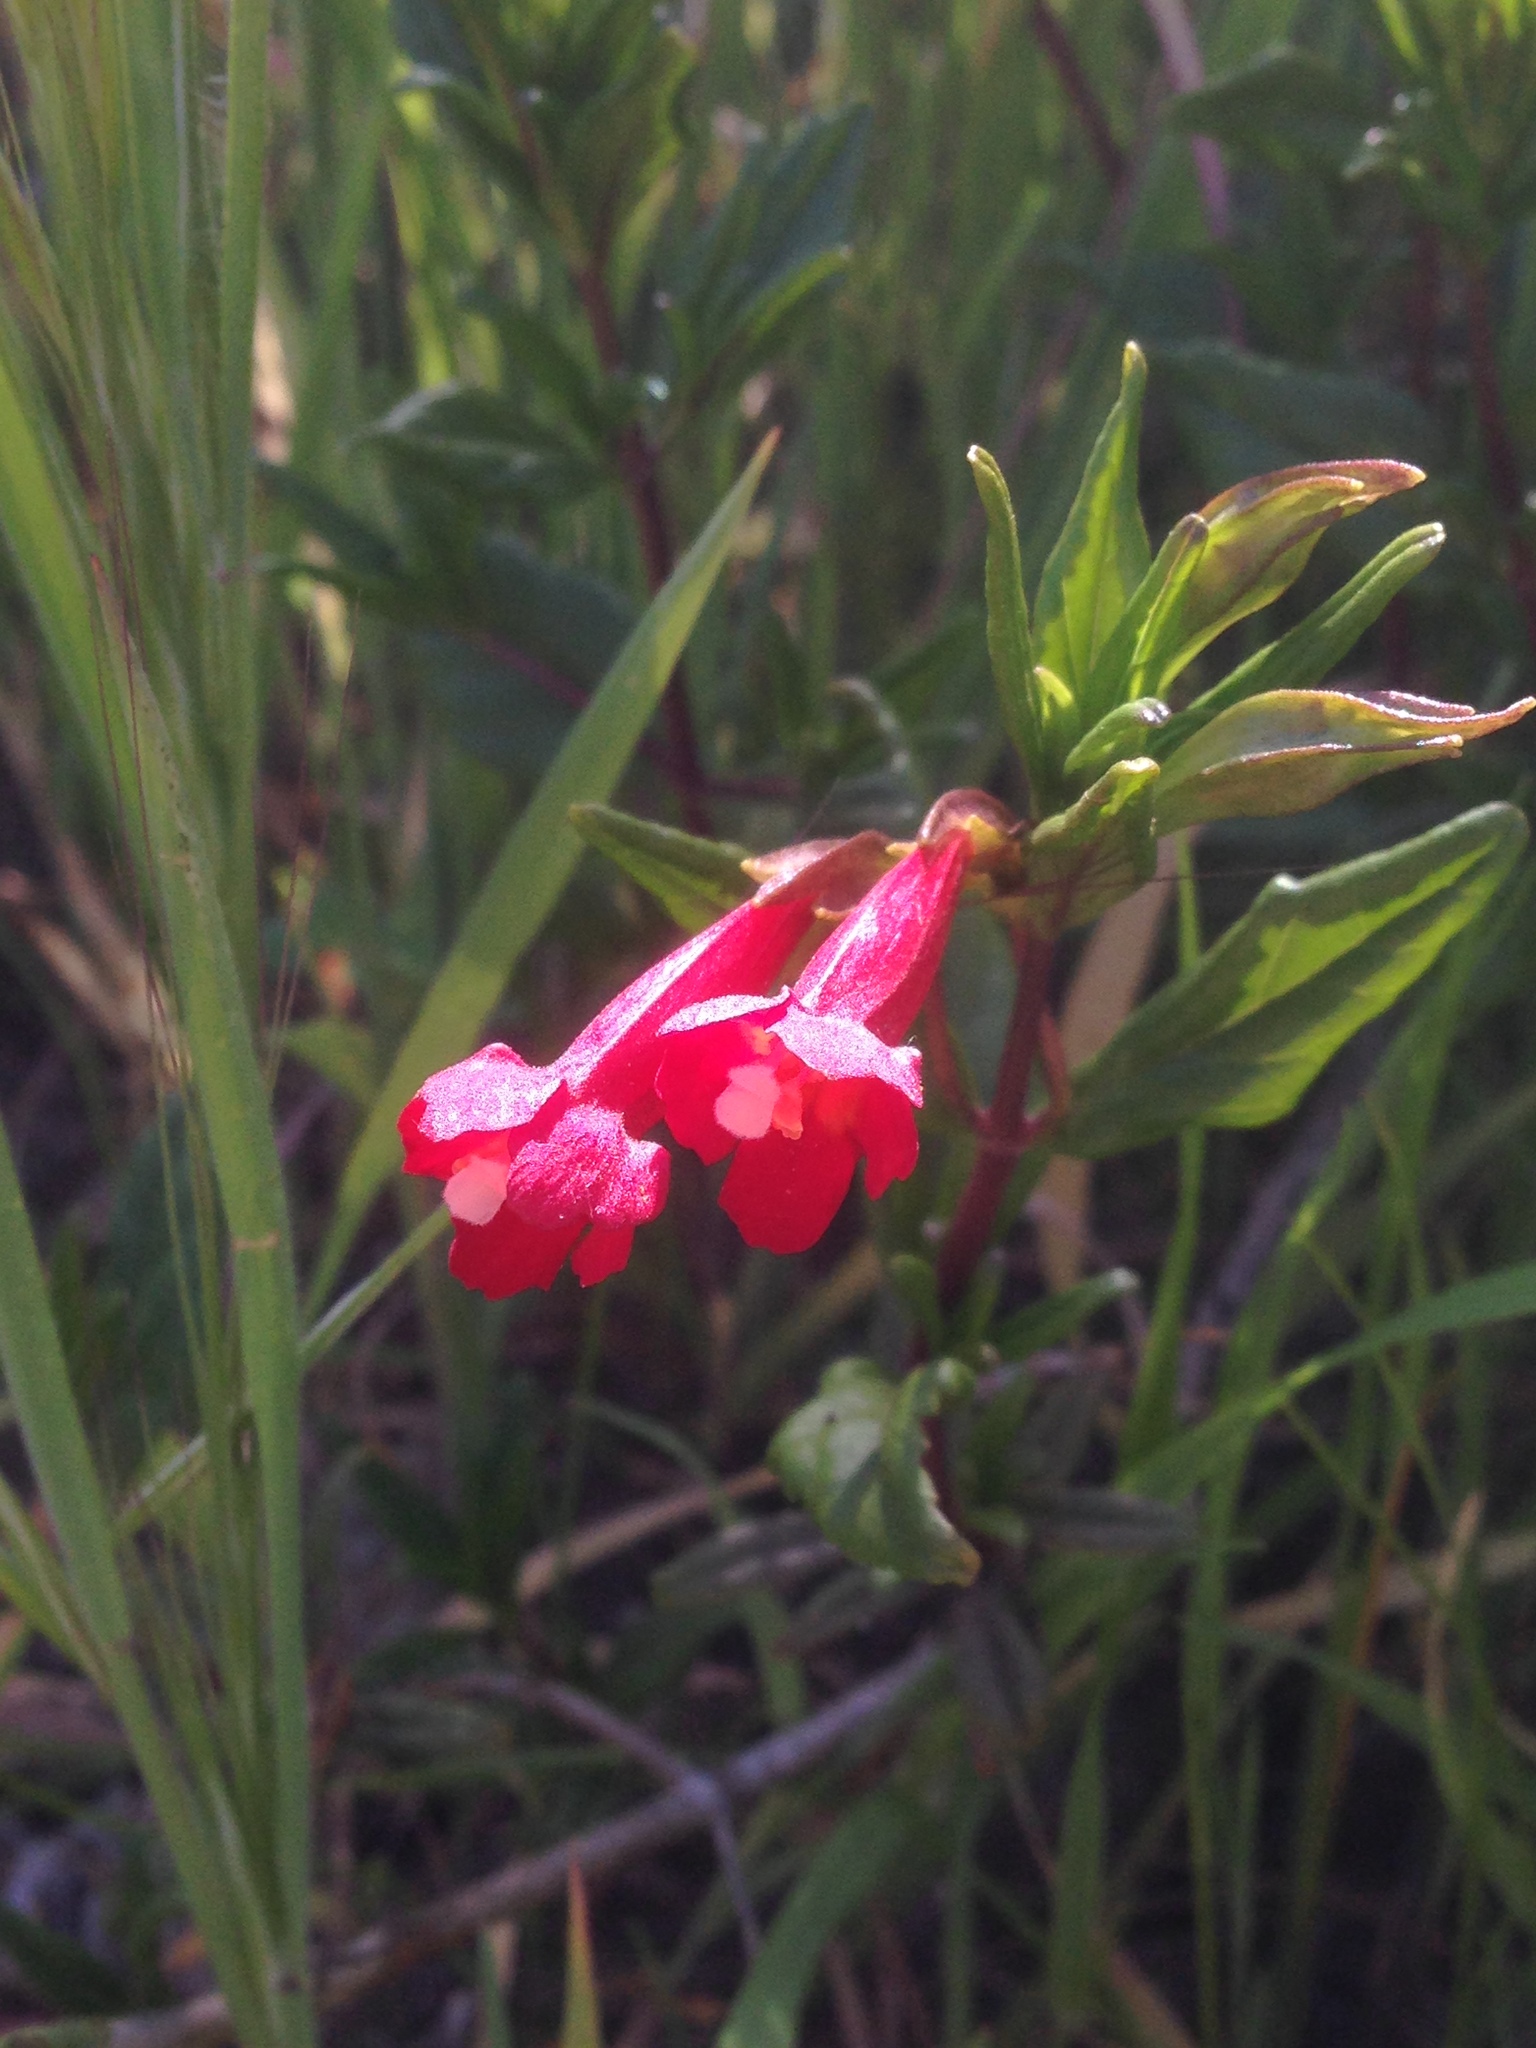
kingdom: Plantae
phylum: Tracheophyta
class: Magnoliopsida
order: Lamiales
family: Phrymaceae
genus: Diplacus
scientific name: Diplacus parviflorus
